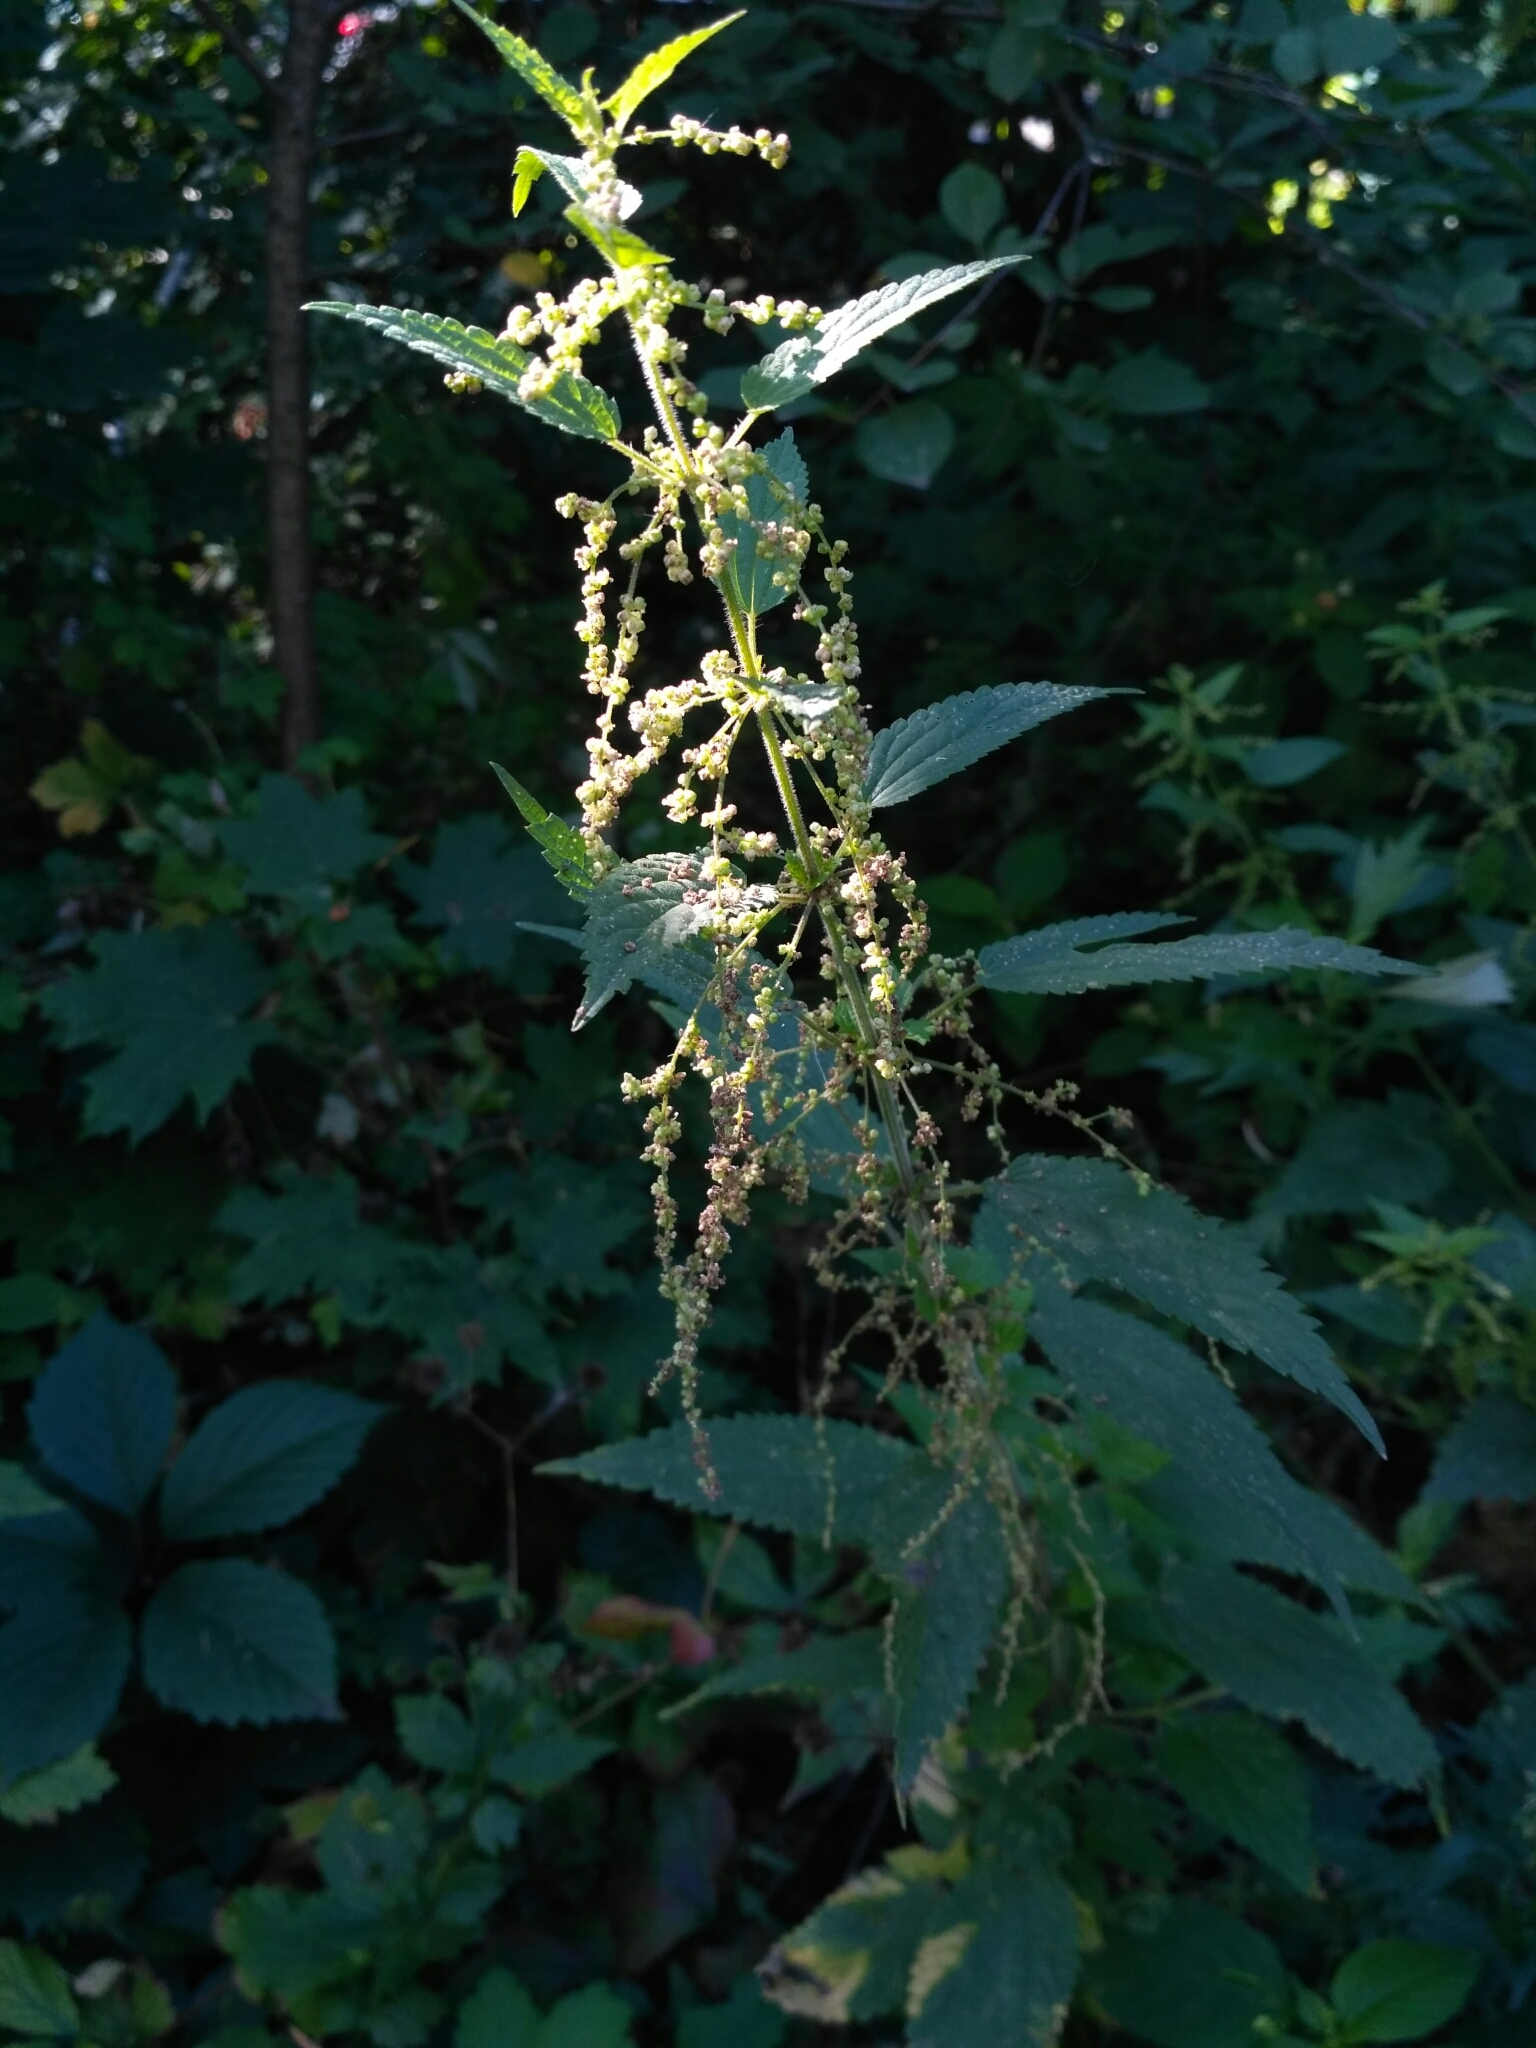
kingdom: Plantae
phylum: Tracheophyta
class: Magnoliopsida
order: Rosales
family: Urticaceae
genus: Urtica
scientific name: Urtica dioica
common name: Common nettle
